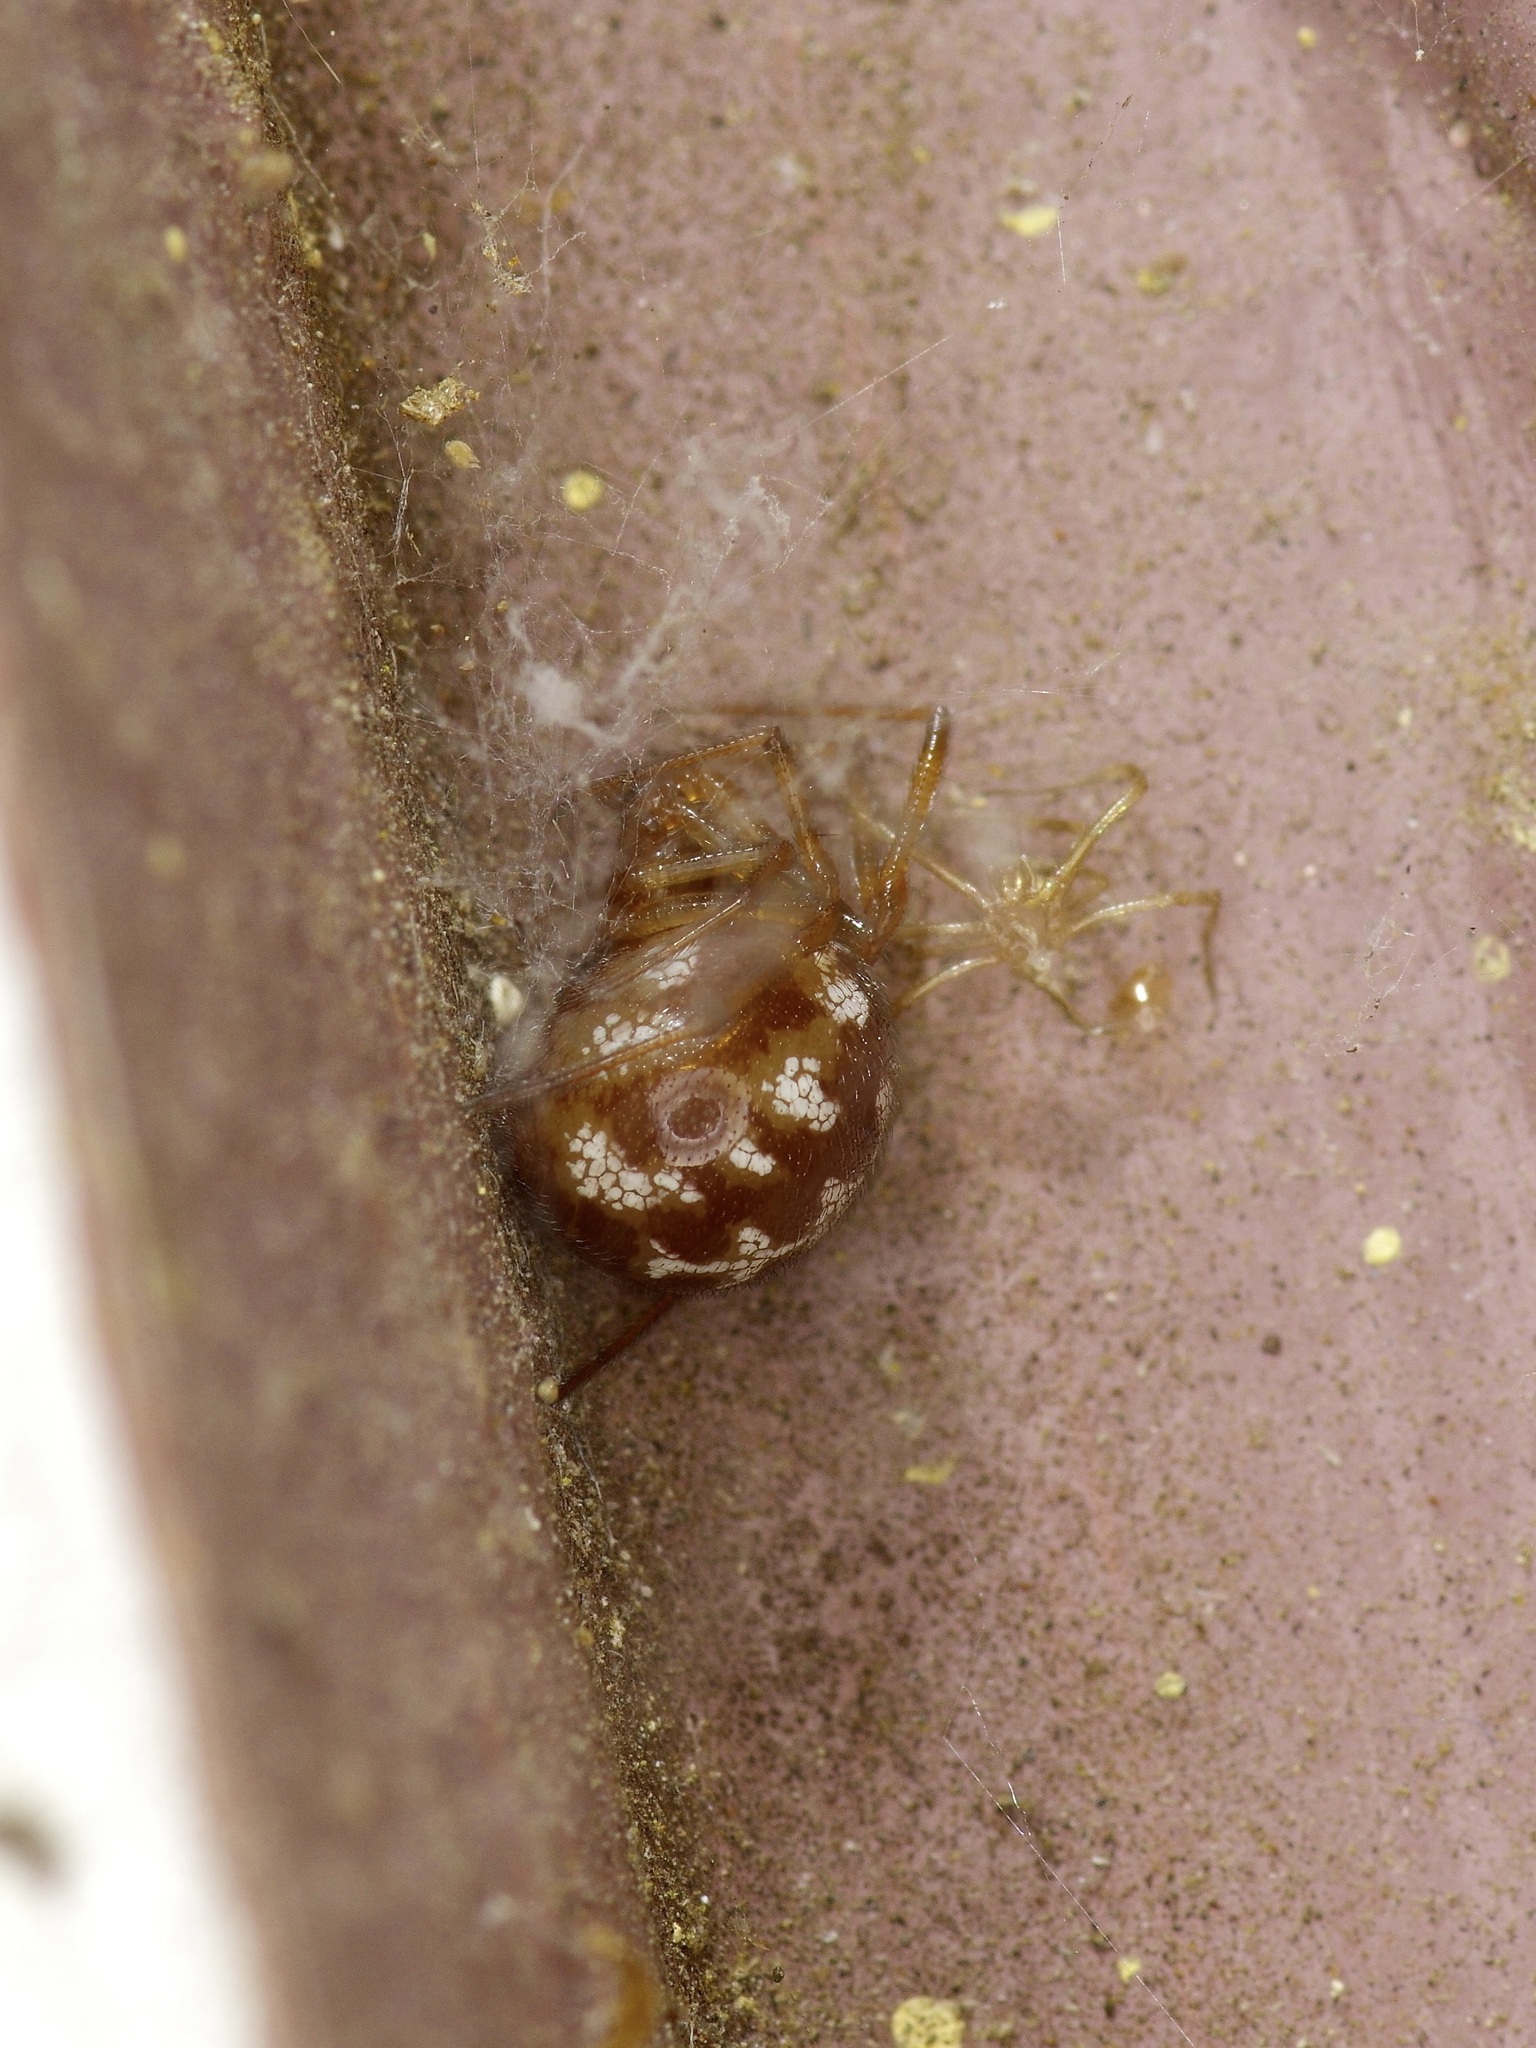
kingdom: Animalia
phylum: Arthropoda
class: Arachnida
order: Araneae
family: Theridiidae
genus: Steatoda
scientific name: Steatoda triangulosa
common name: Triangulate bud spider
